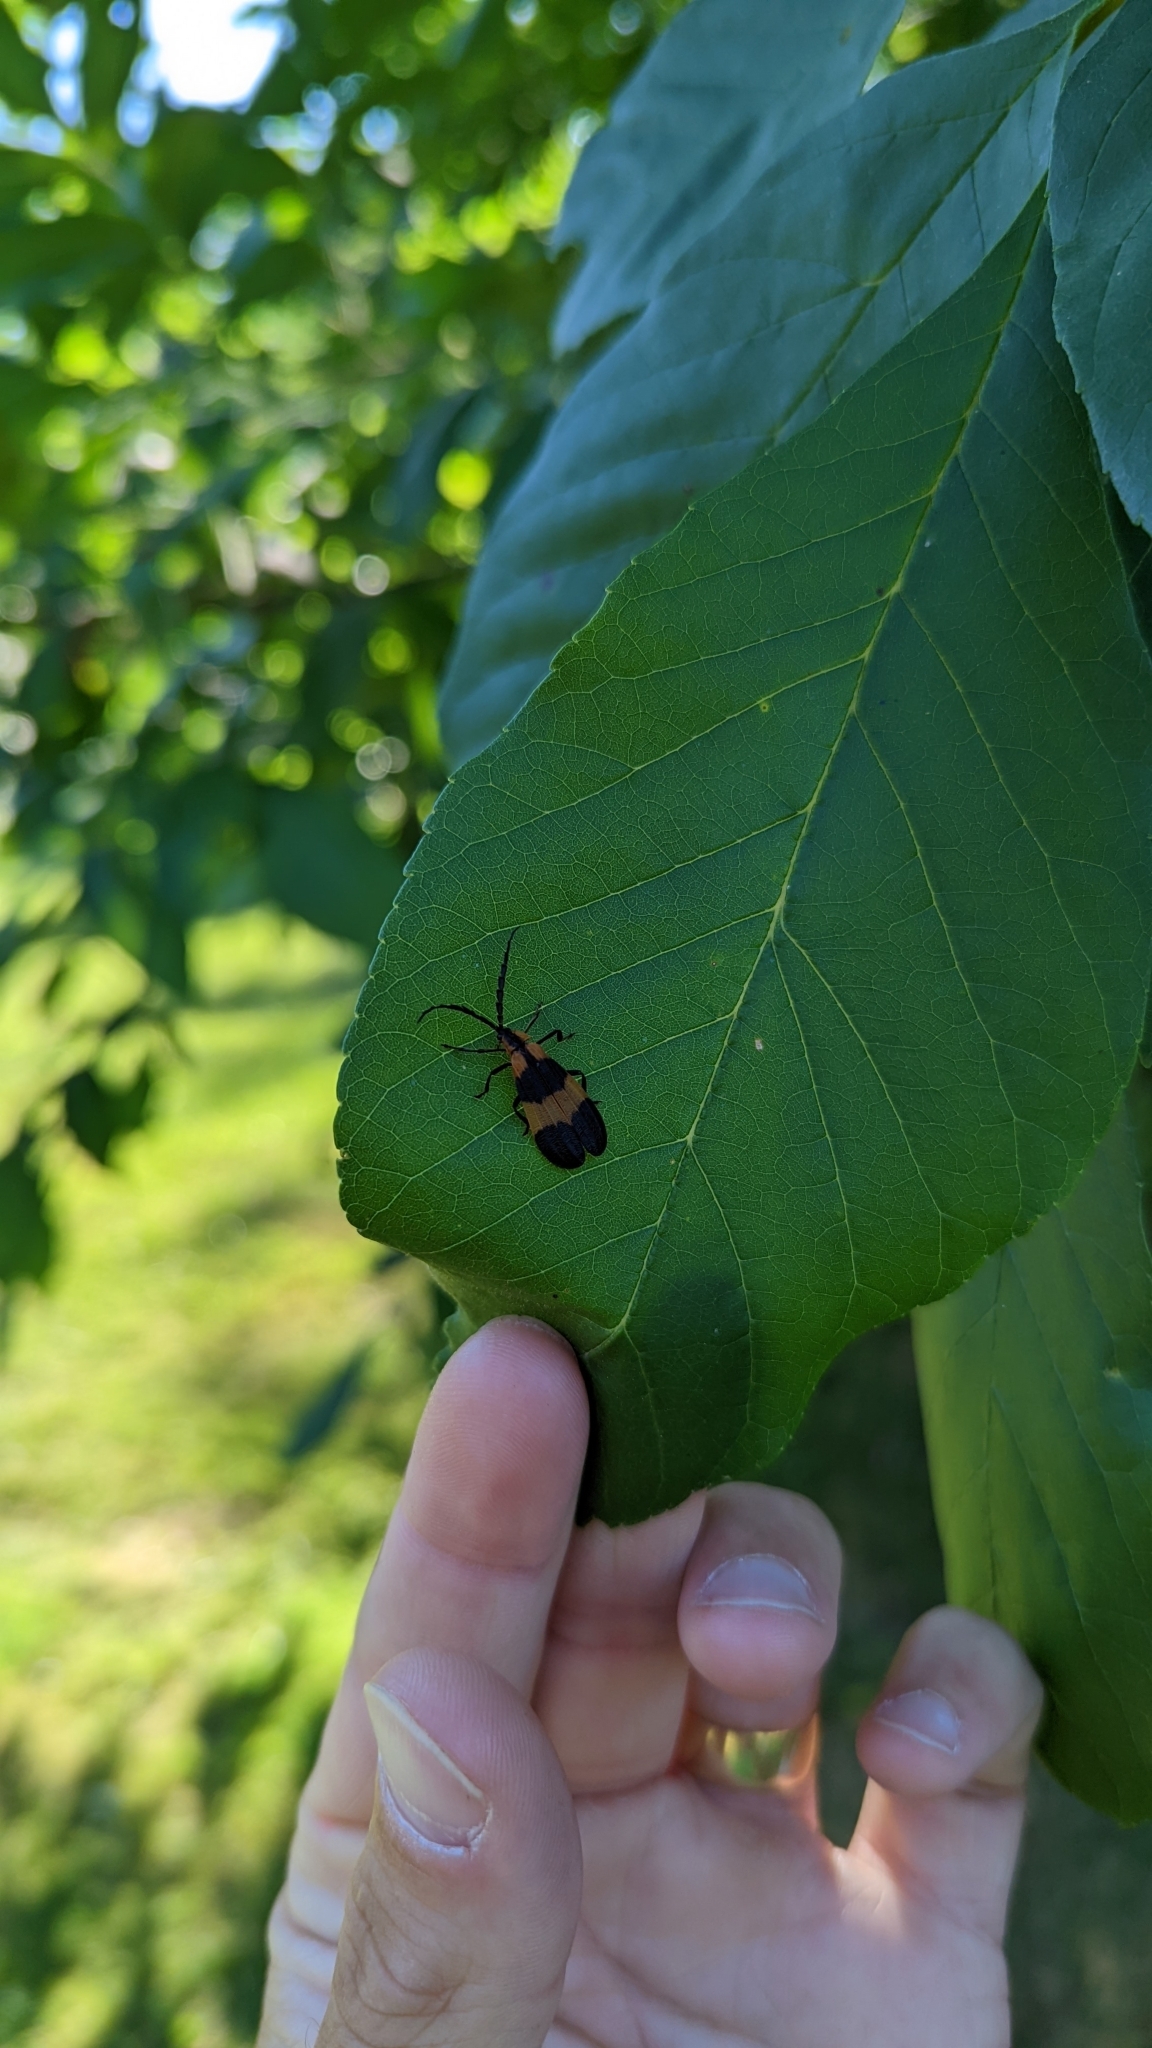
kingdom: Animalia
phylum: Arthropoda
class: Insecta
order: Coleoptera
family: Lycidae
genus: Calopteron
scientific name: Calopteron reticulatum
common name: Banded net-winged beetle
